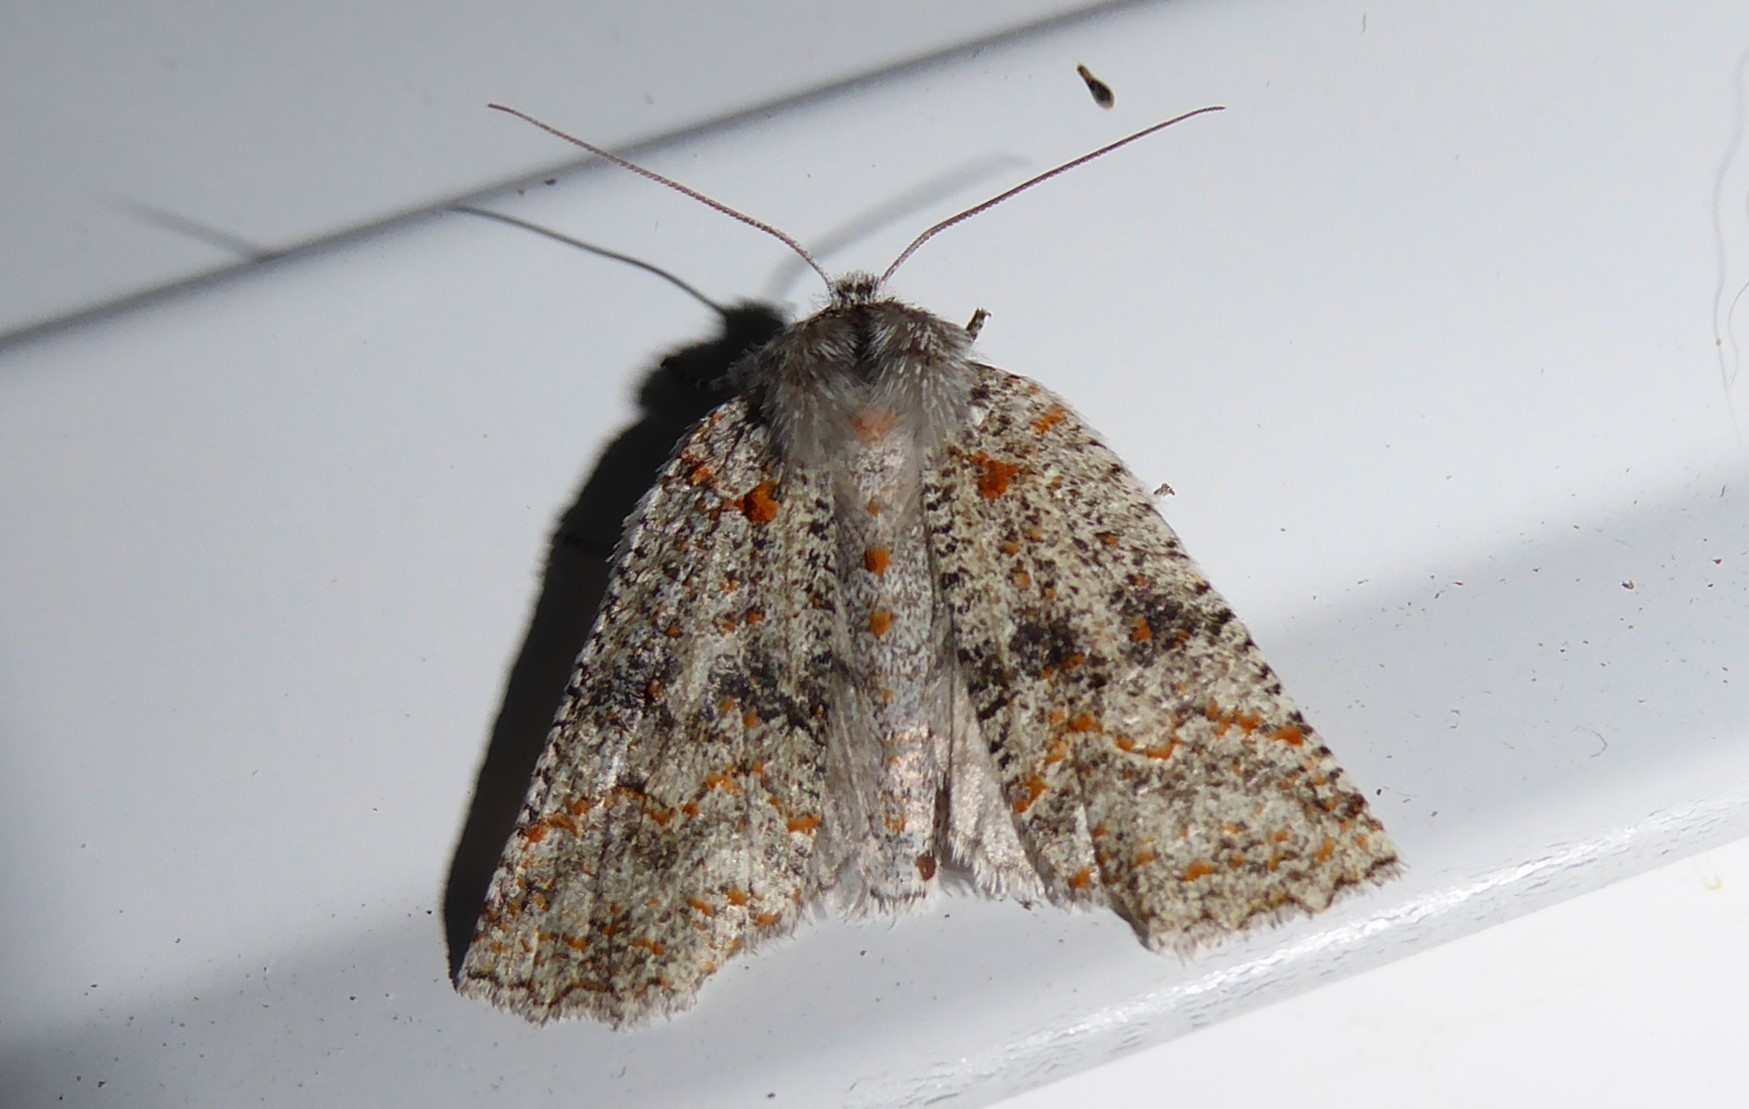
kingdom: Animalia
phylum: Arthropoda
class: Insecta
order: Lepidoptera
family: Geometridae
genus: Declana
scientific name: Declana floccosa
